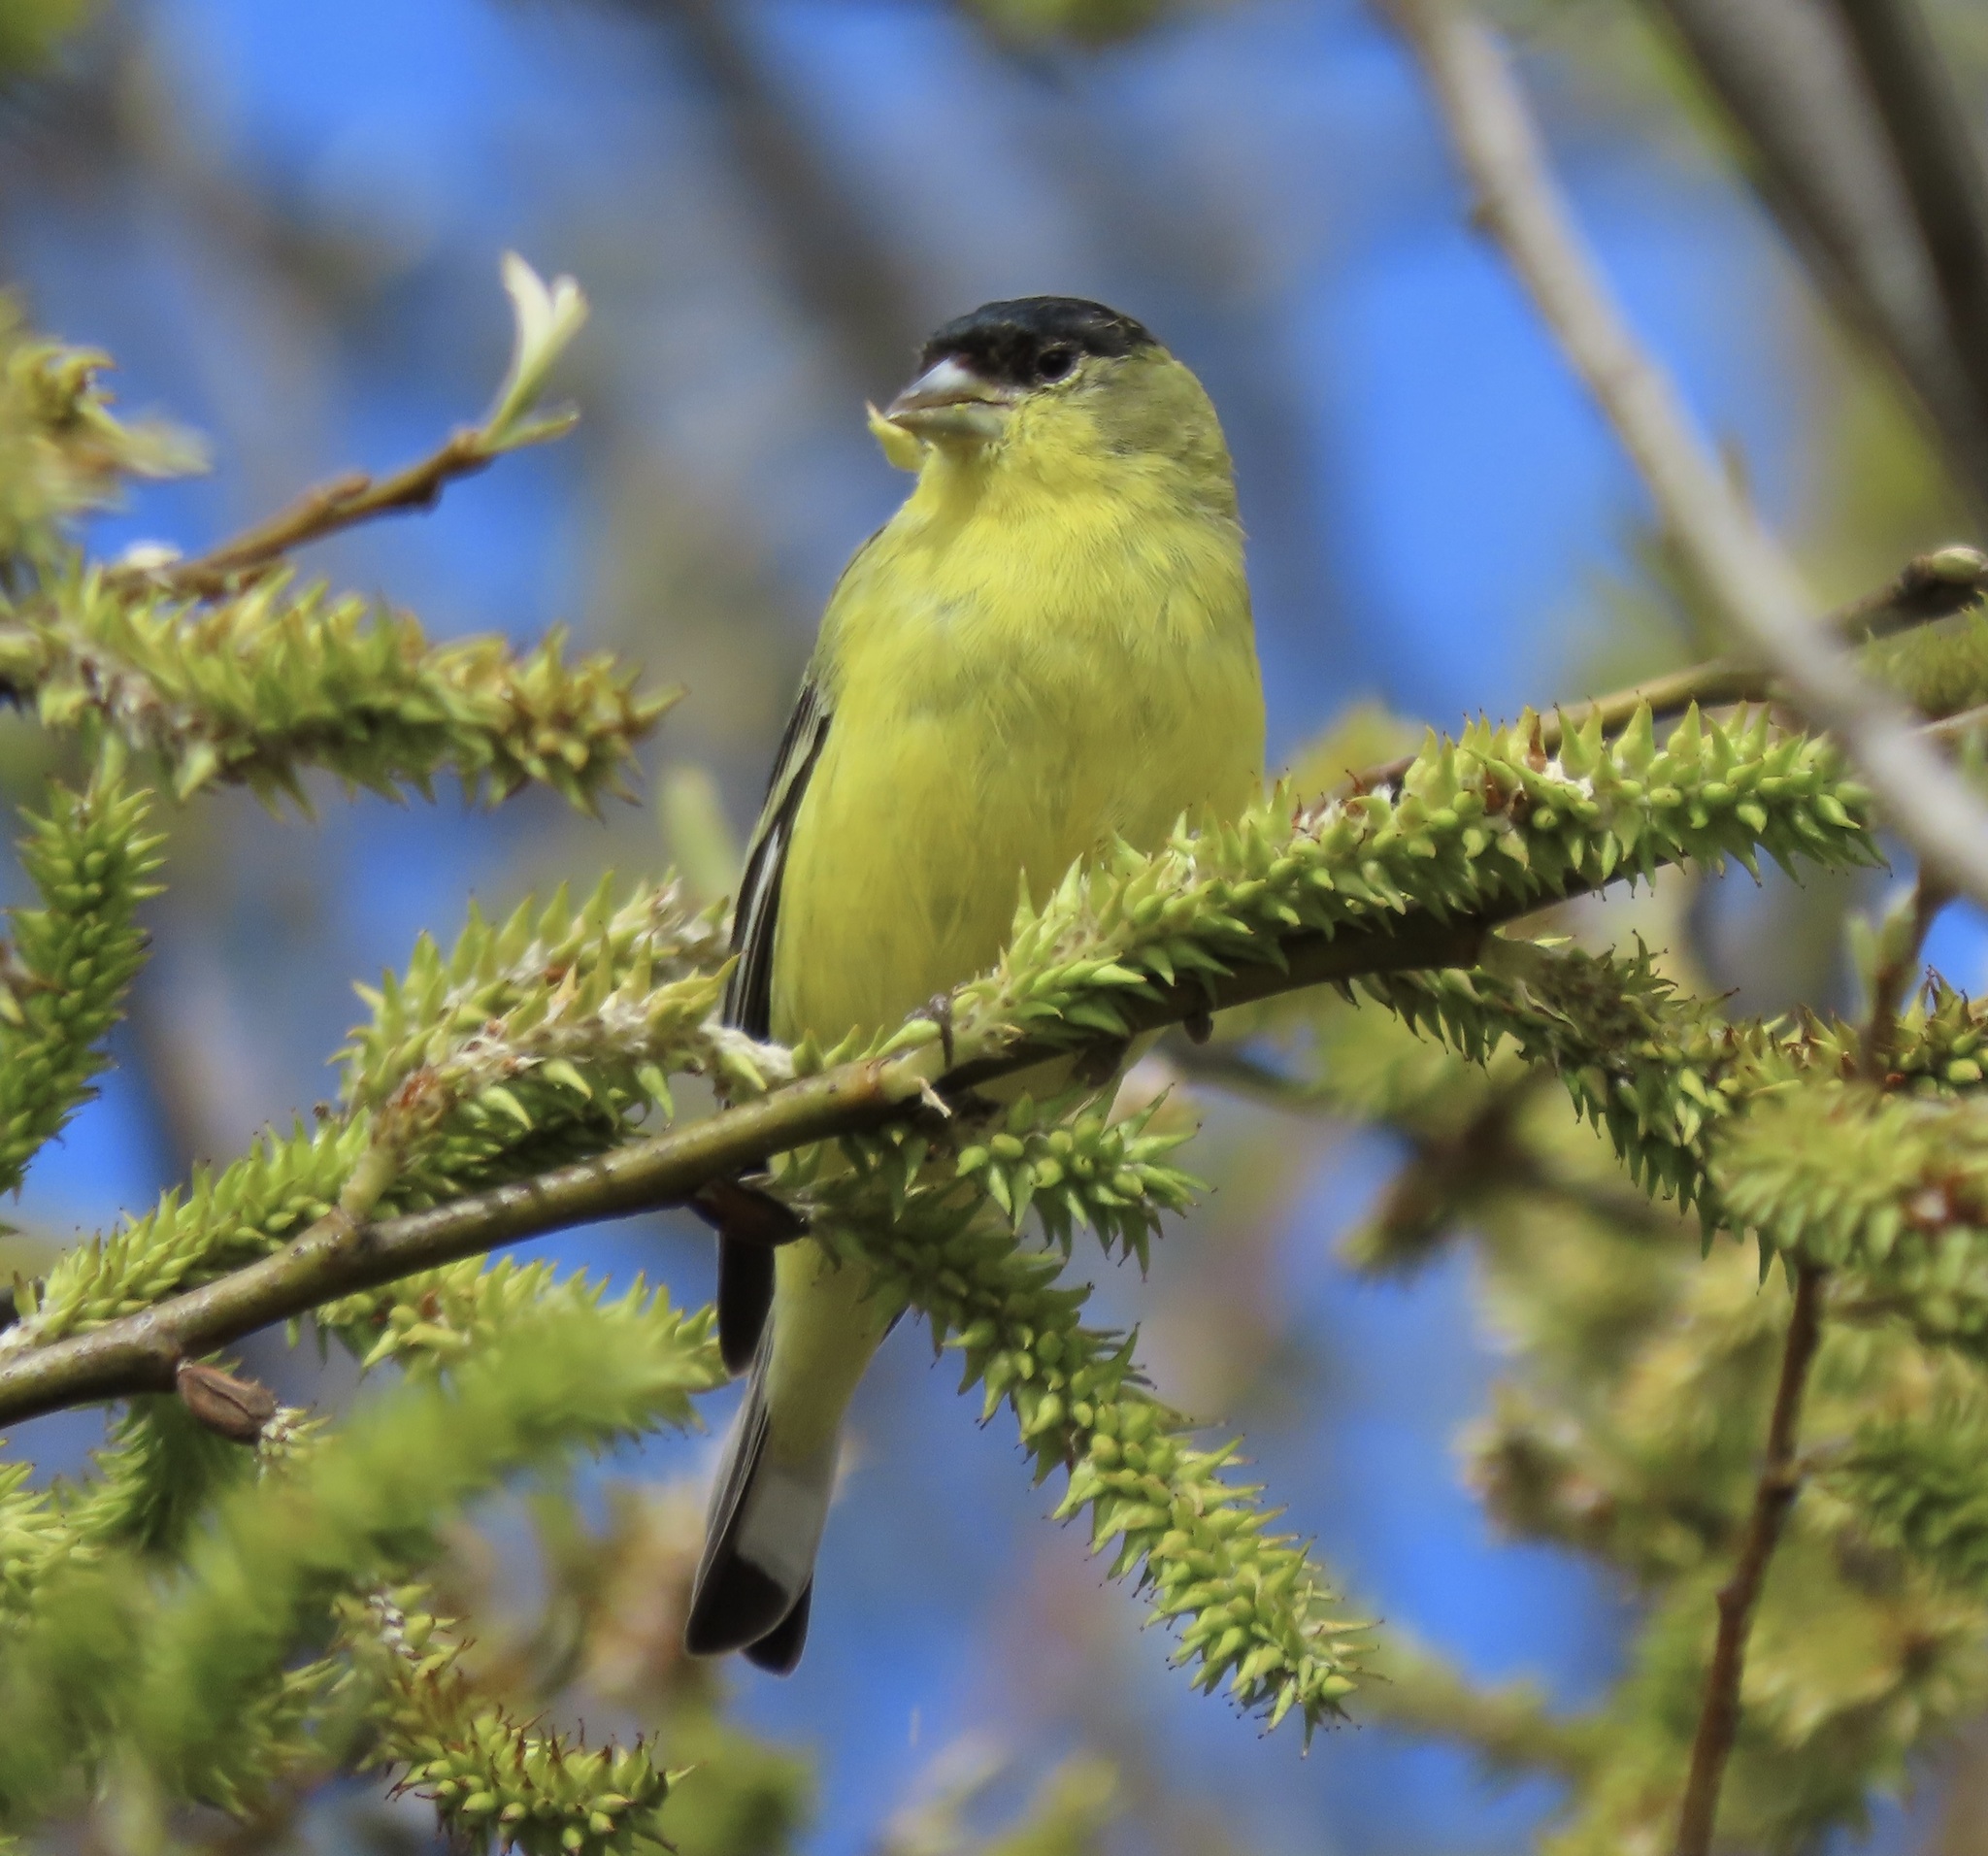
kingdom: Animalia
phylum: Chordata
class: Aves
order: Passeriformes
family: Fringillidae
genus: Spinus
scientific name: Spinus psaltria
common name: Lesser goldfinch
